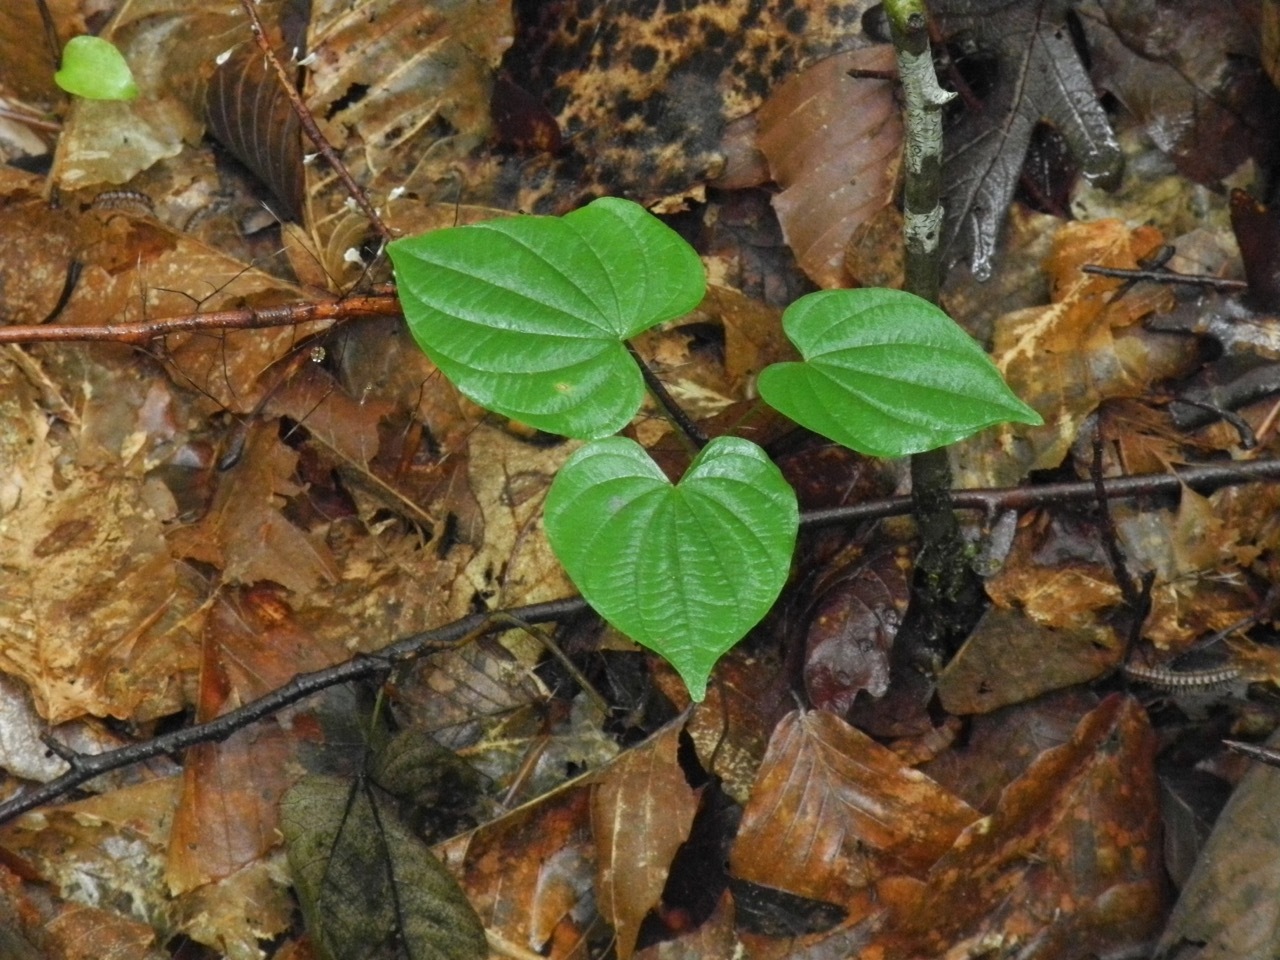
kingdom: Plantae
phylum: Tracheophyta
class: Liliopsida
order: Dioscoreales
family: Dioscoreaceae
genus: Dioscorea
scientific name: Dioscorea villosa
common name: Wild yam
